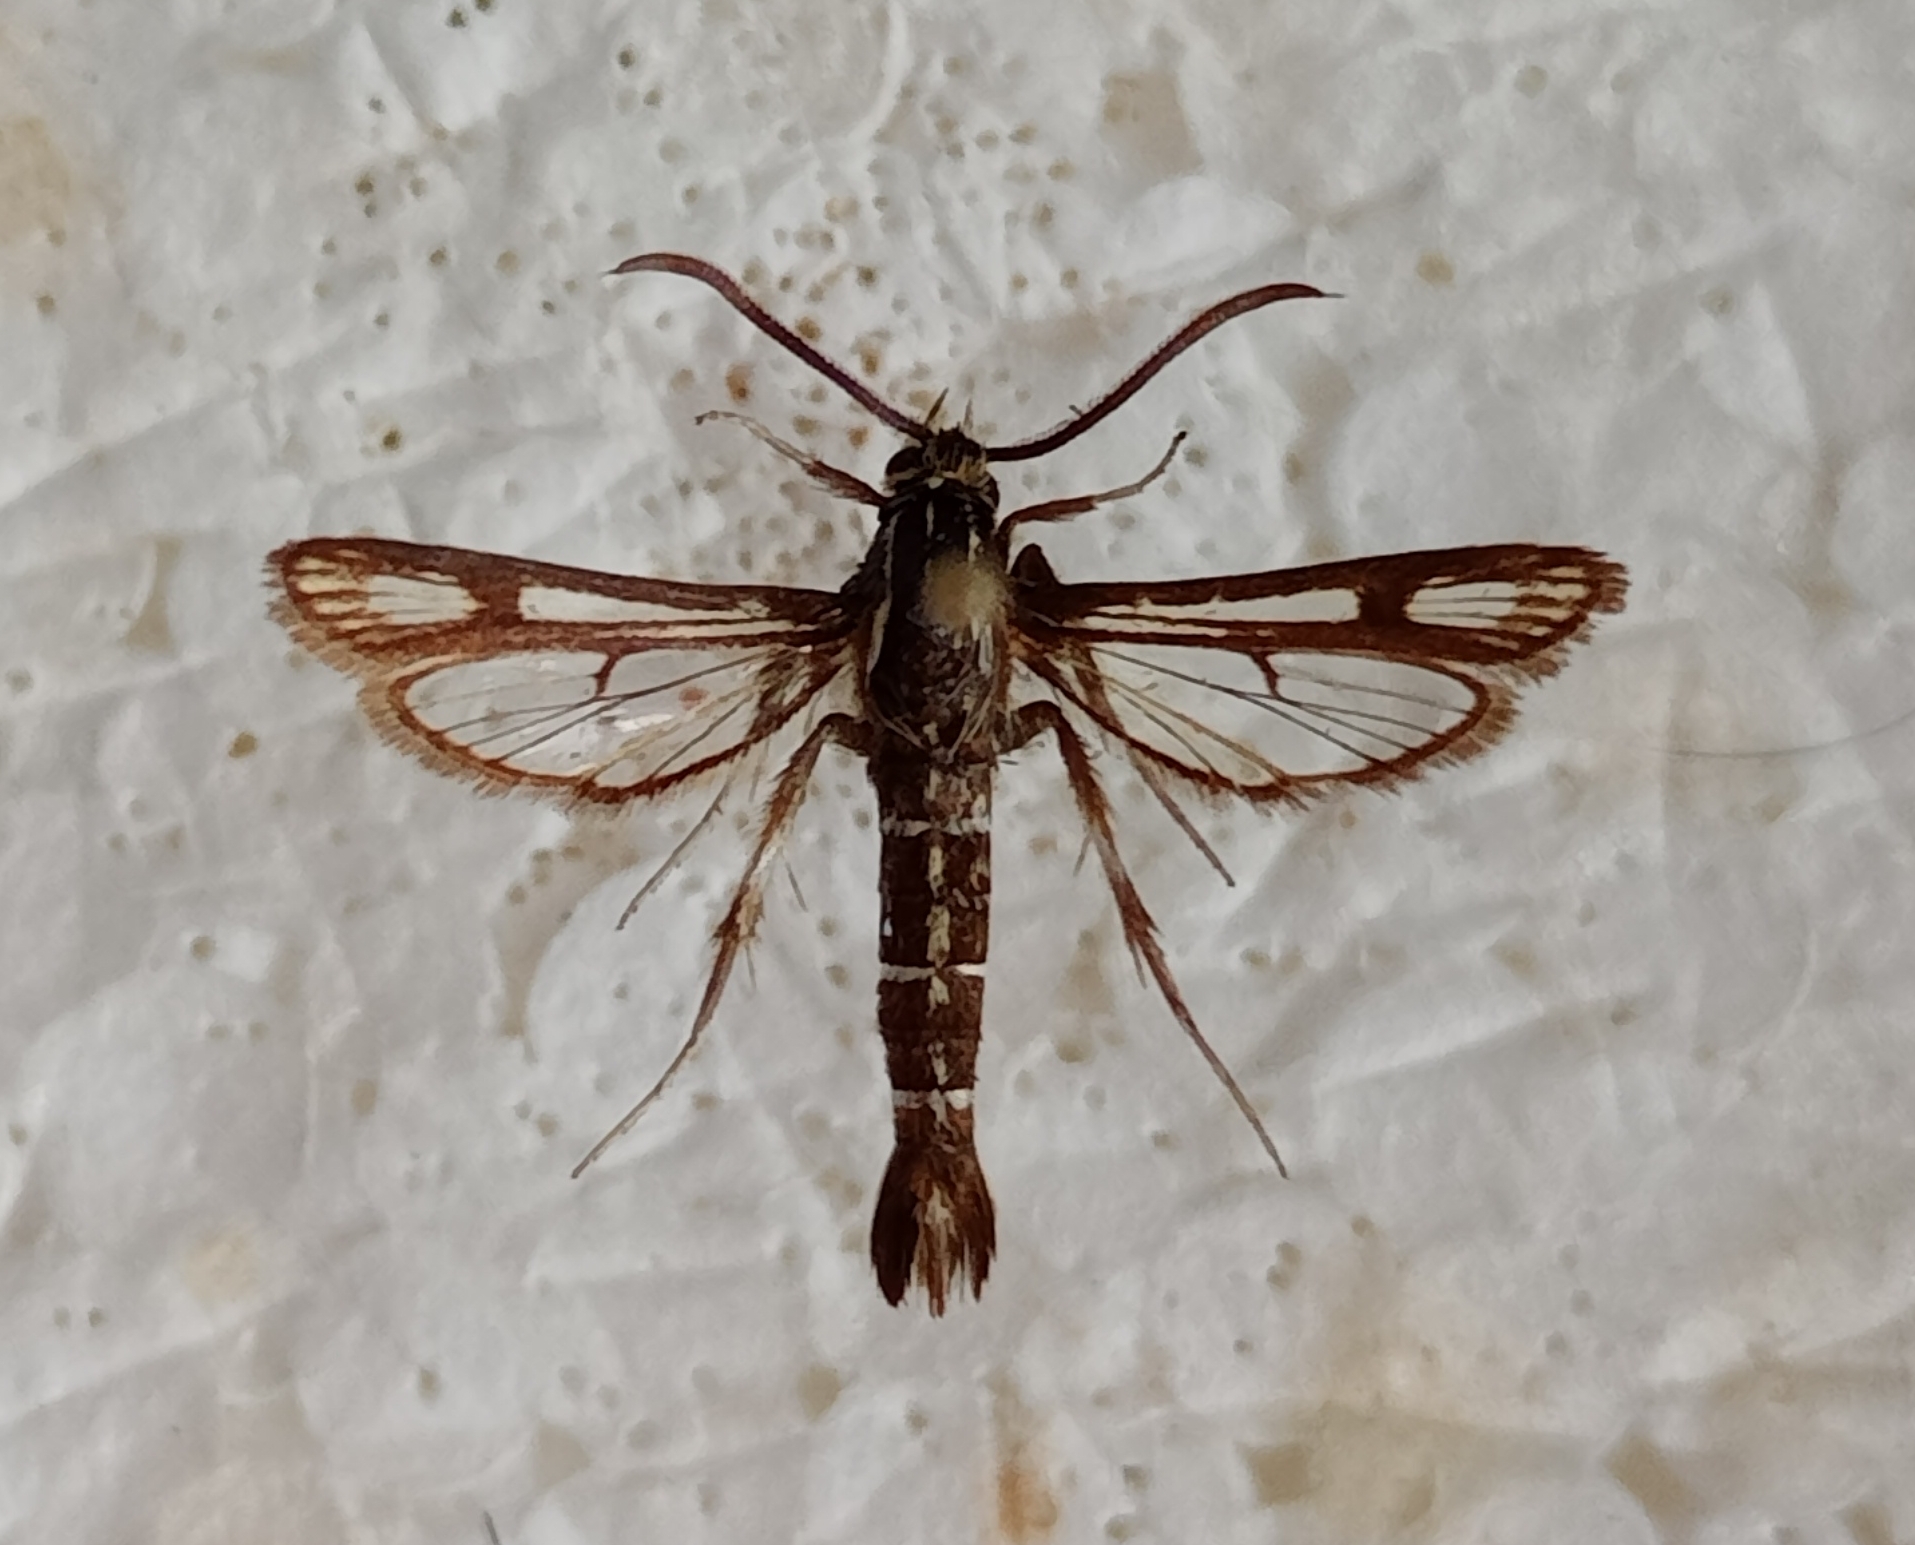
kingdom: Animalia
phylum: Arthropoda
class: Insecta
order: Lepidoptera
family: Sesiidae
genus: Chamaesphecia
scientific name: Chamaesphecia crassicornis
